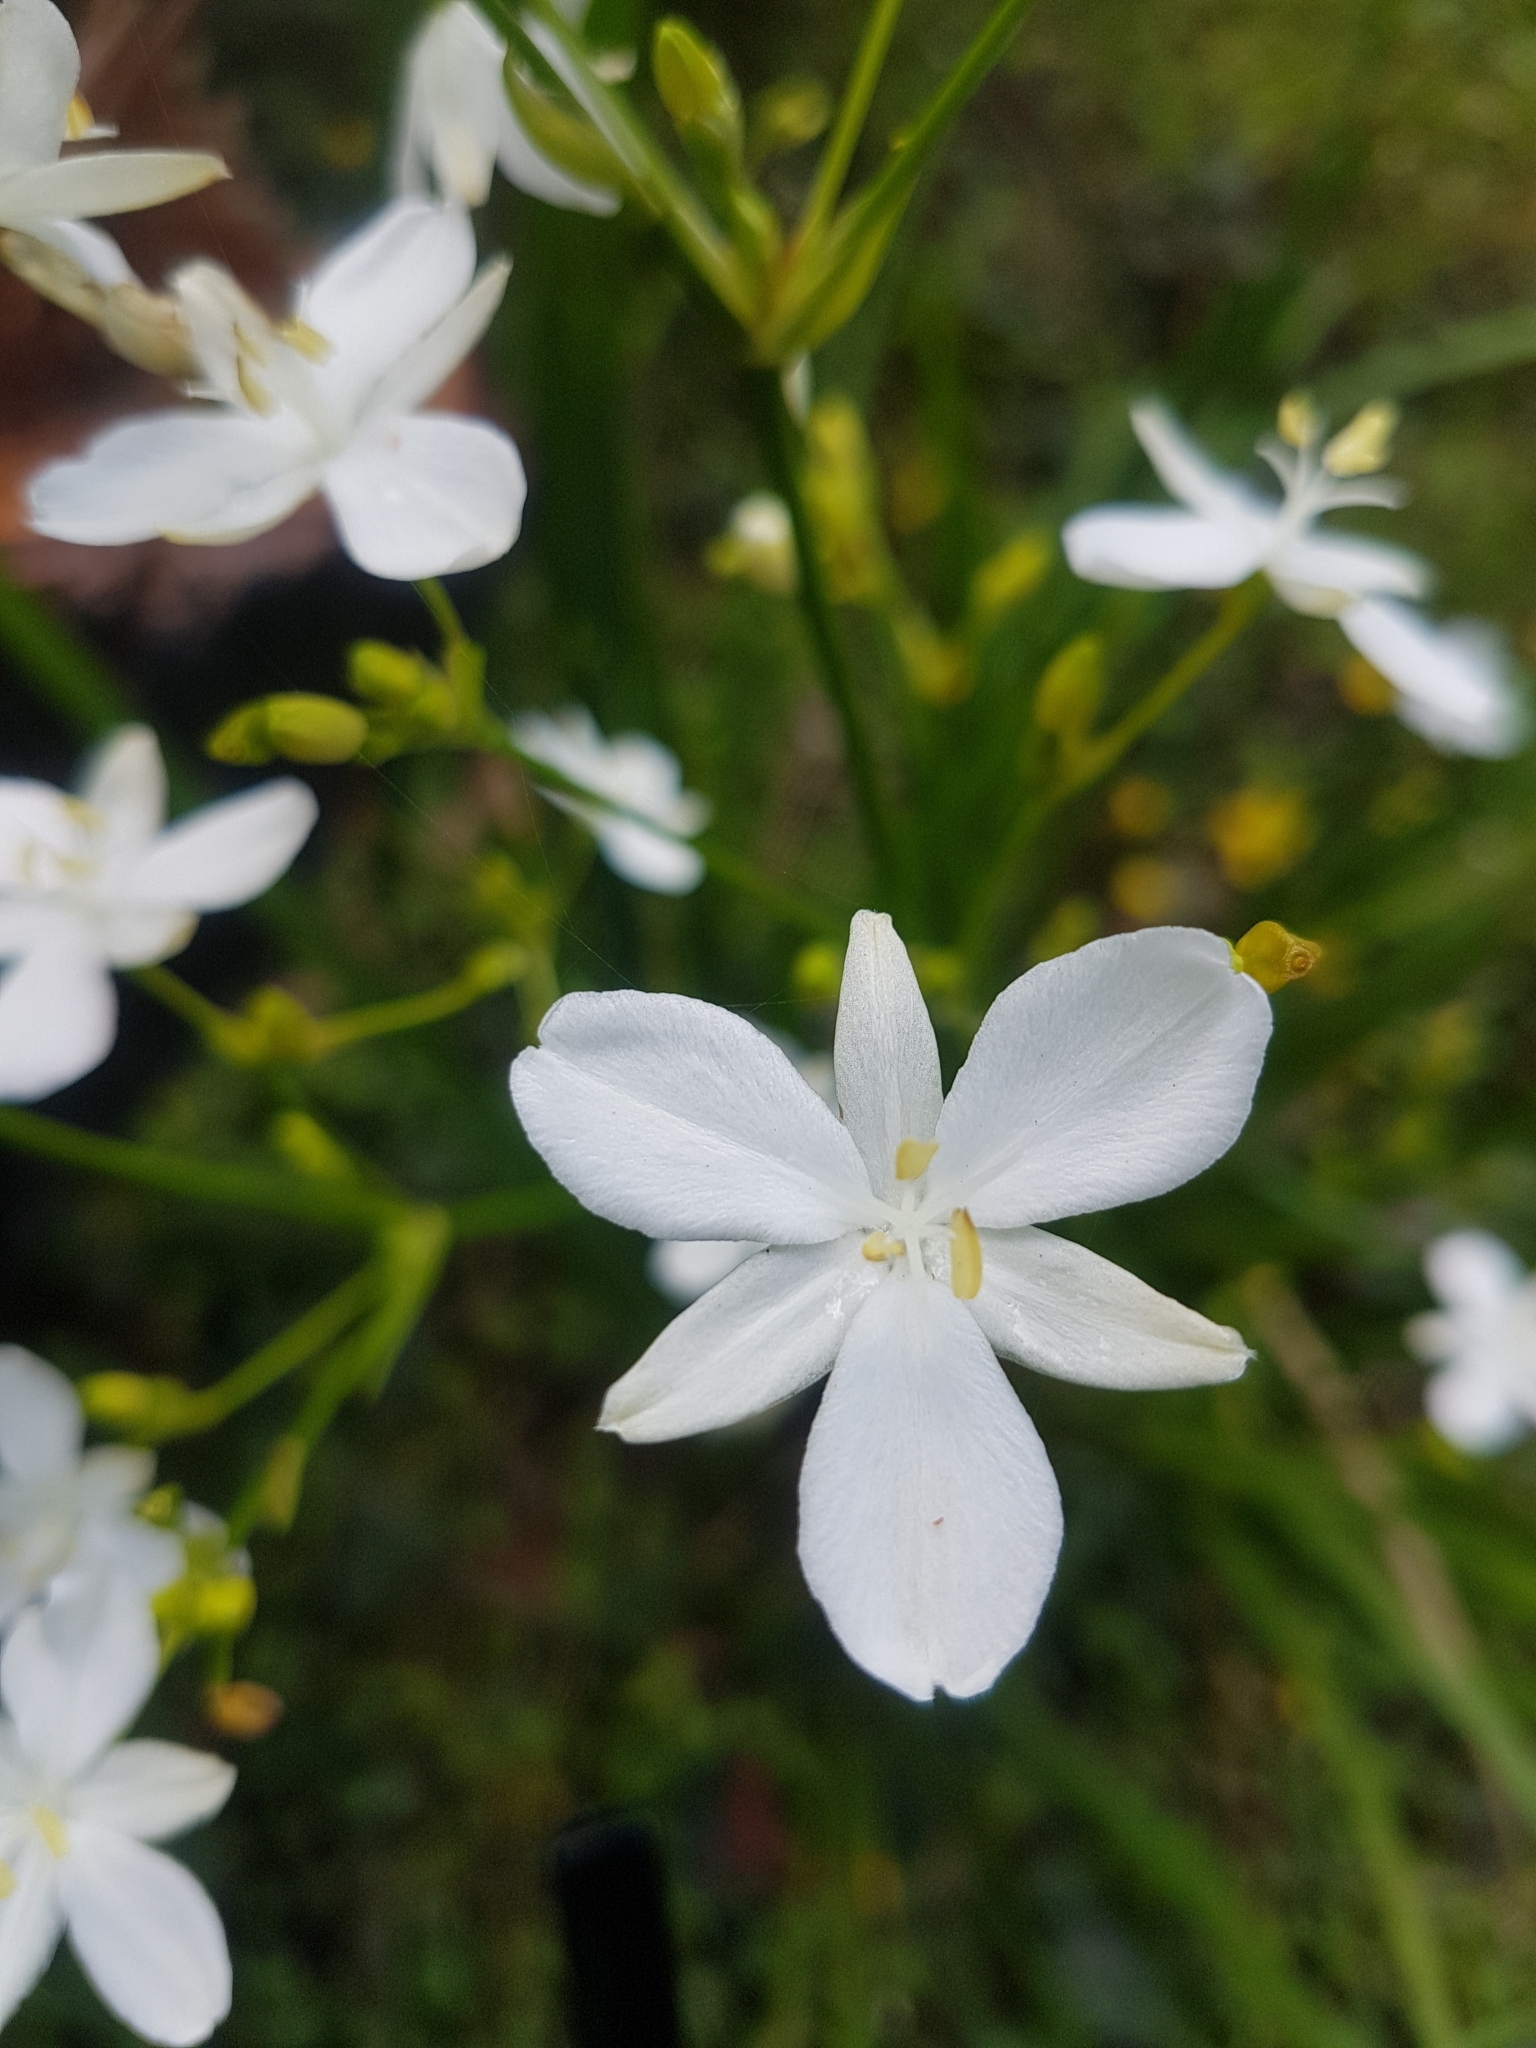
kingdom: Plantae
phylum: Tracheophyta
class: Liliopsida
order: Asparagales
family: Iridaceae
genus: Libertia
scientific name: Libertia paniculata
